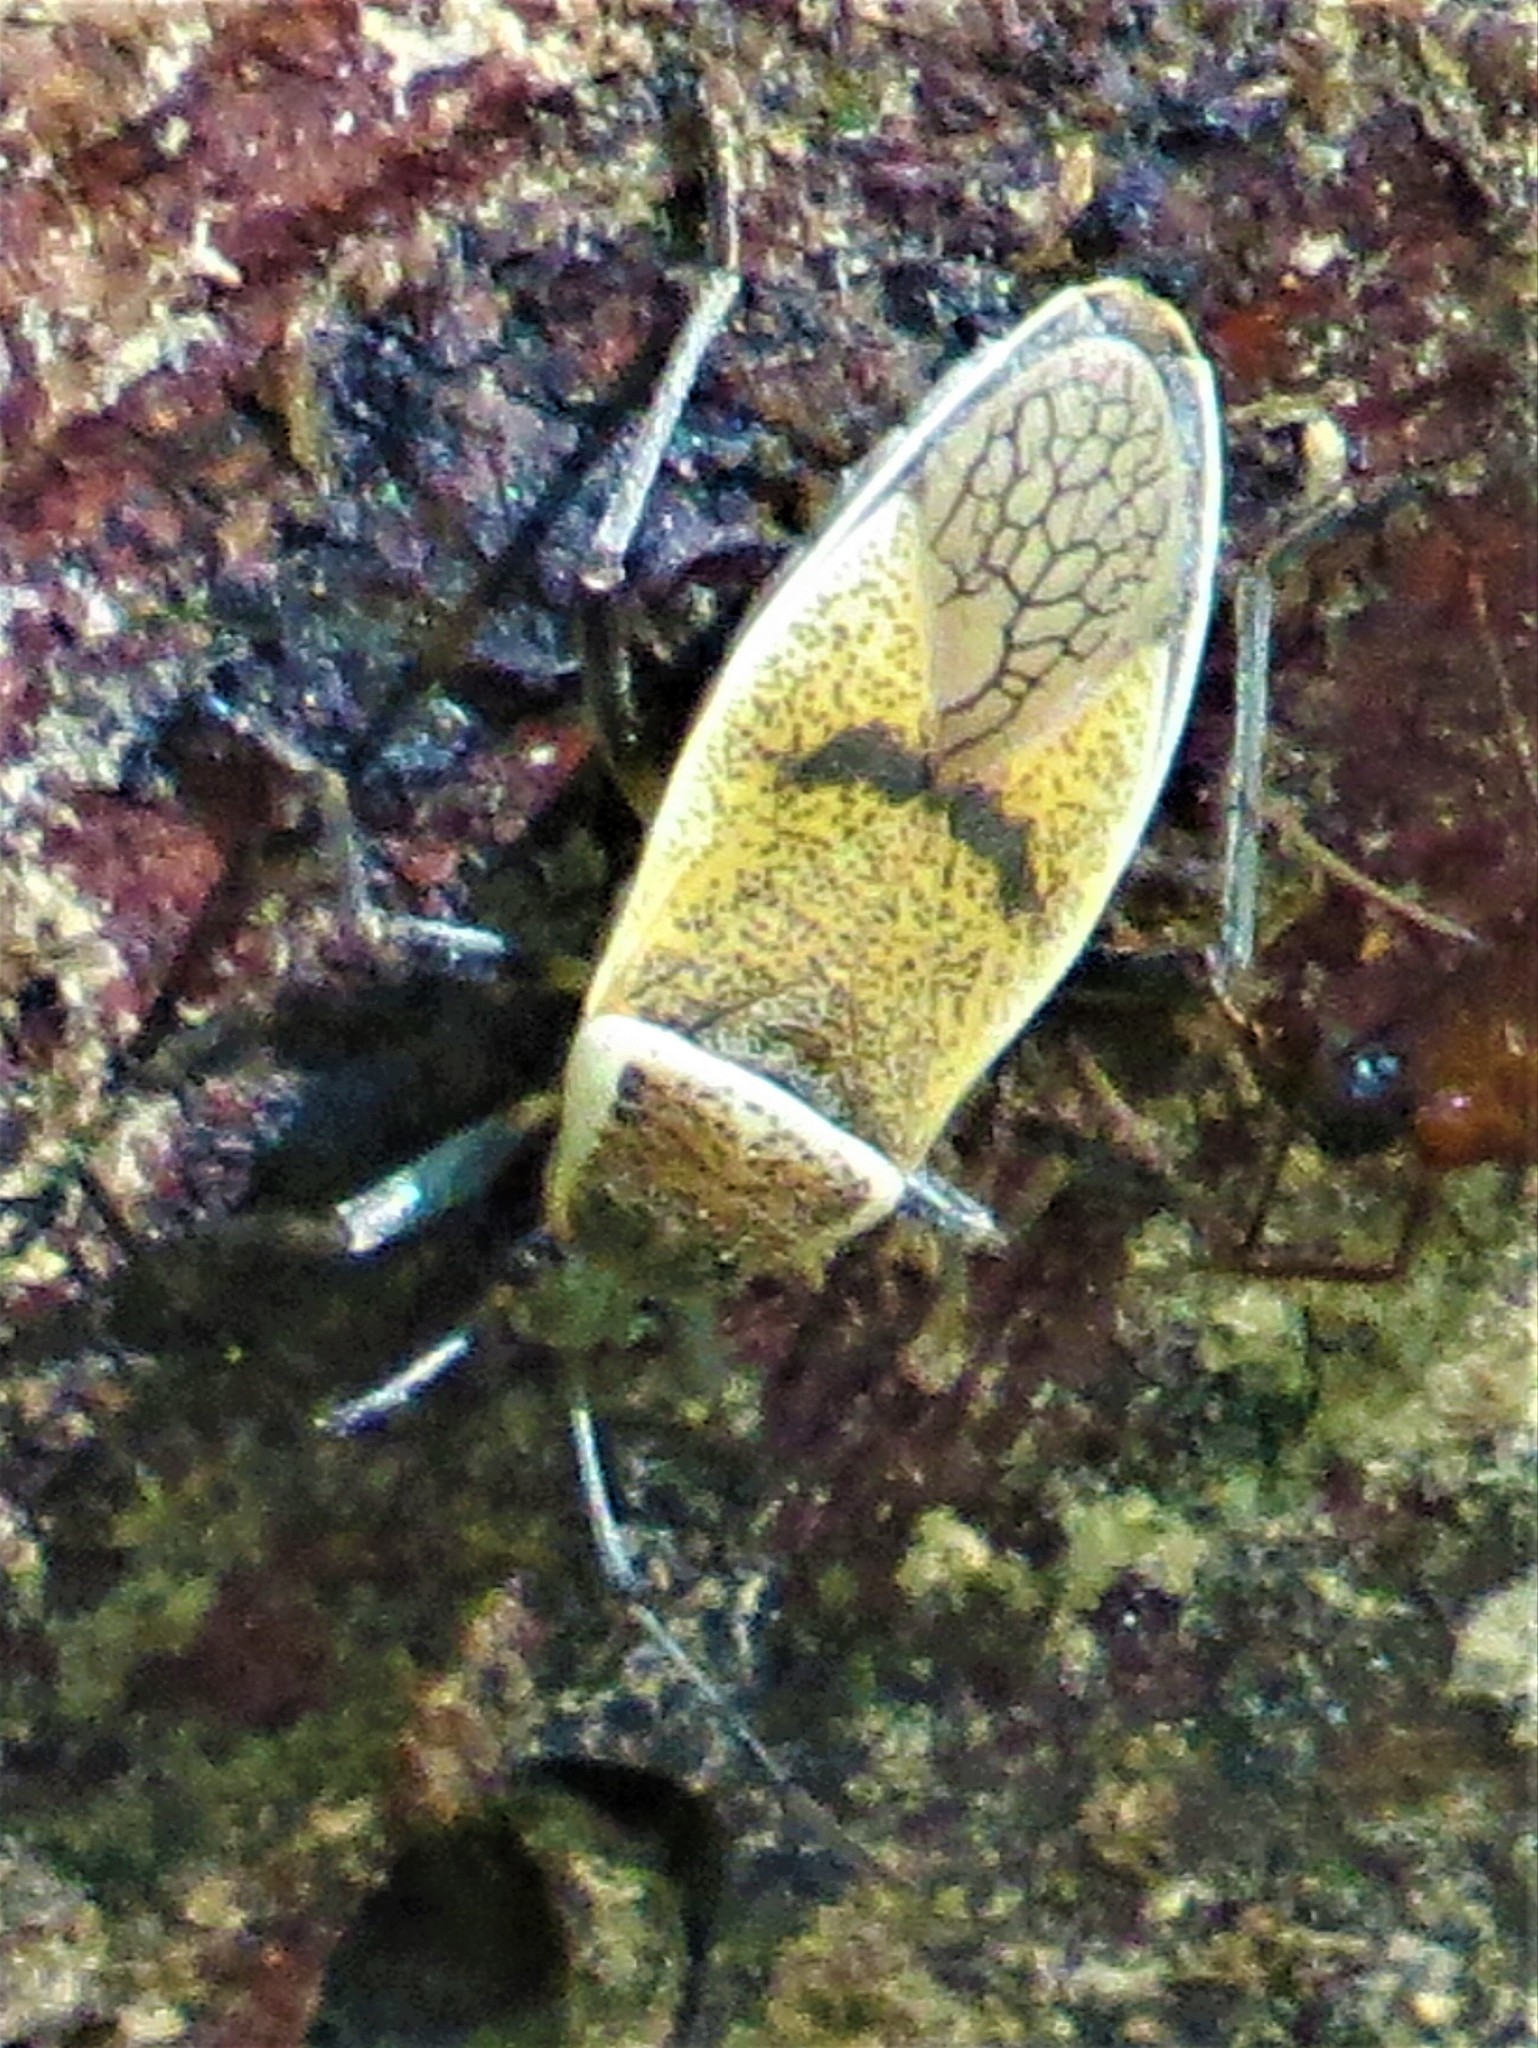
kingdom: Animalia
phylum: Arthropoda
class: Insecta
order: Hemiptera
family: Largidae
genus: Largus
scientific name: Largus maculatus
